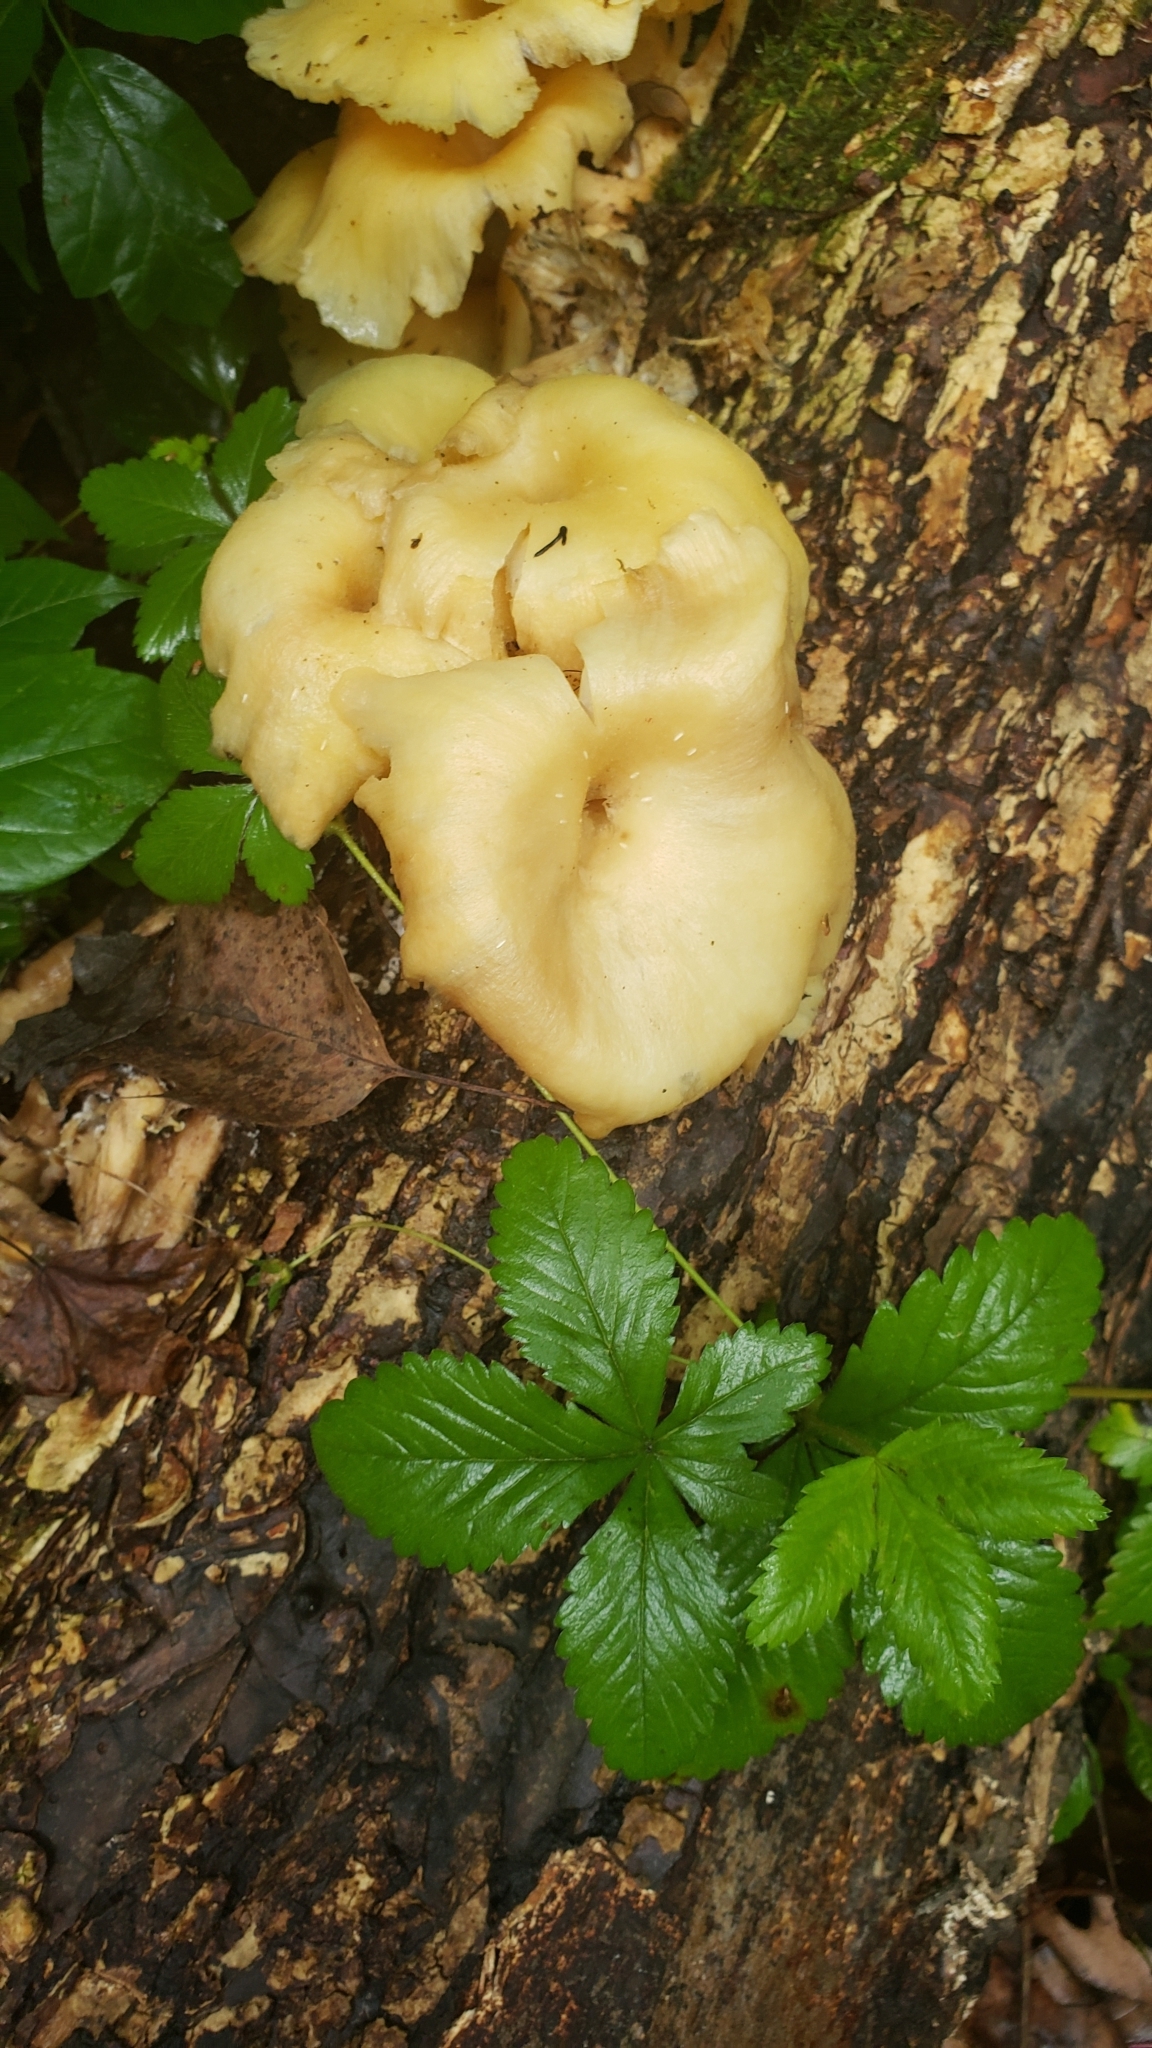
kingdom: Fungi
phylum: Basidiomycota
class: Agaricomycetes
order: Agaricales
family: Pleurotaceae
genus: Pleurotus
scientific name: Pleurotus citrinopileatus
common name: Golden oyster mushroom
